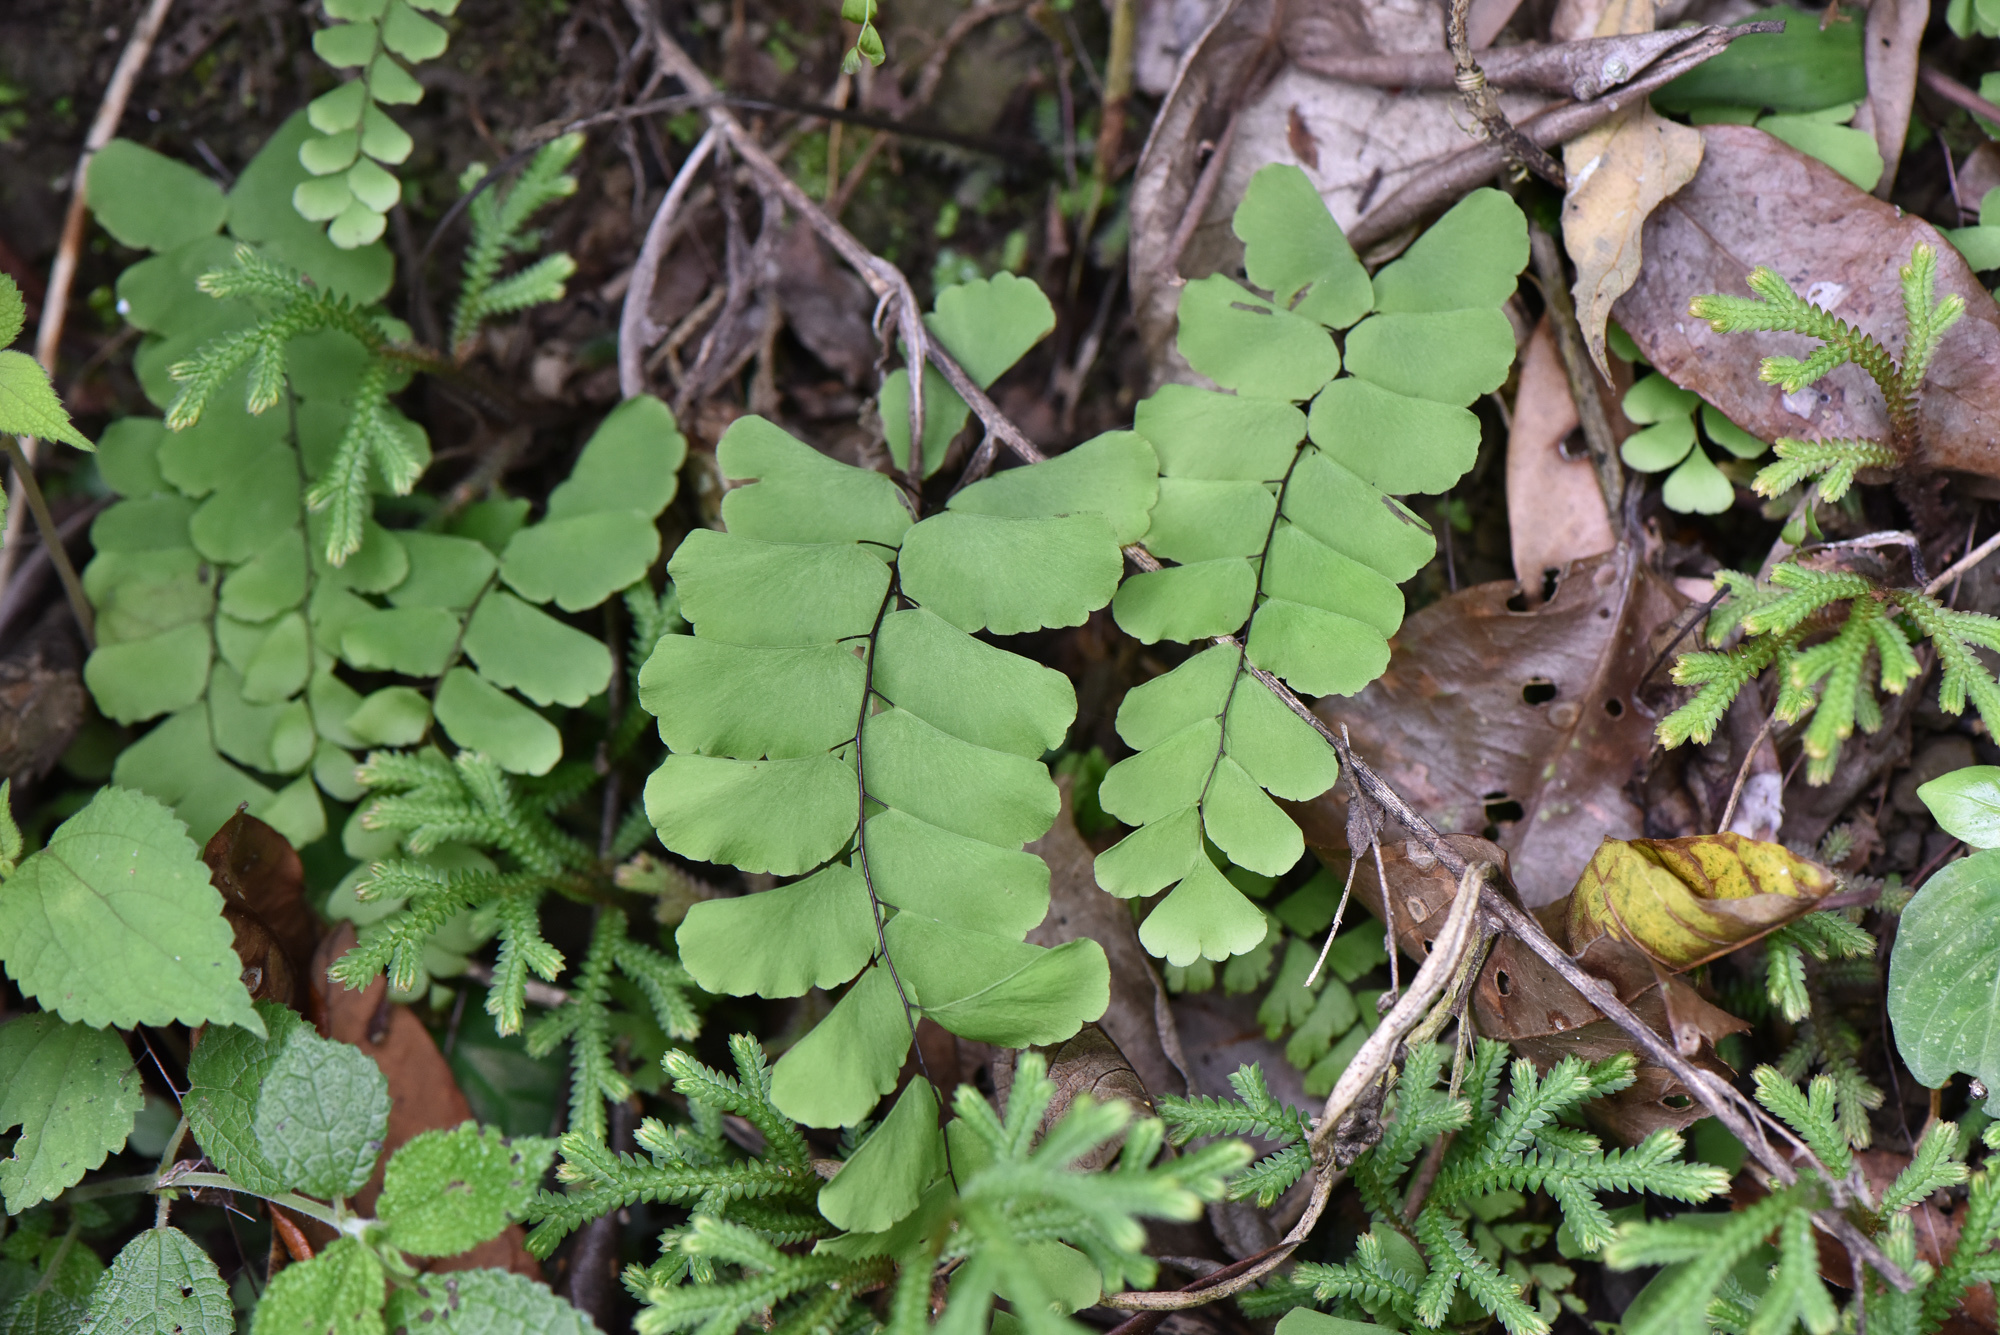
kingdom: Plantae
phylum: Tracheophyta
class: Polypodiopsida
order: Polypodiales
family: Pteridaceae
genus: Adiantum
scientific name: Adiantum philippense
